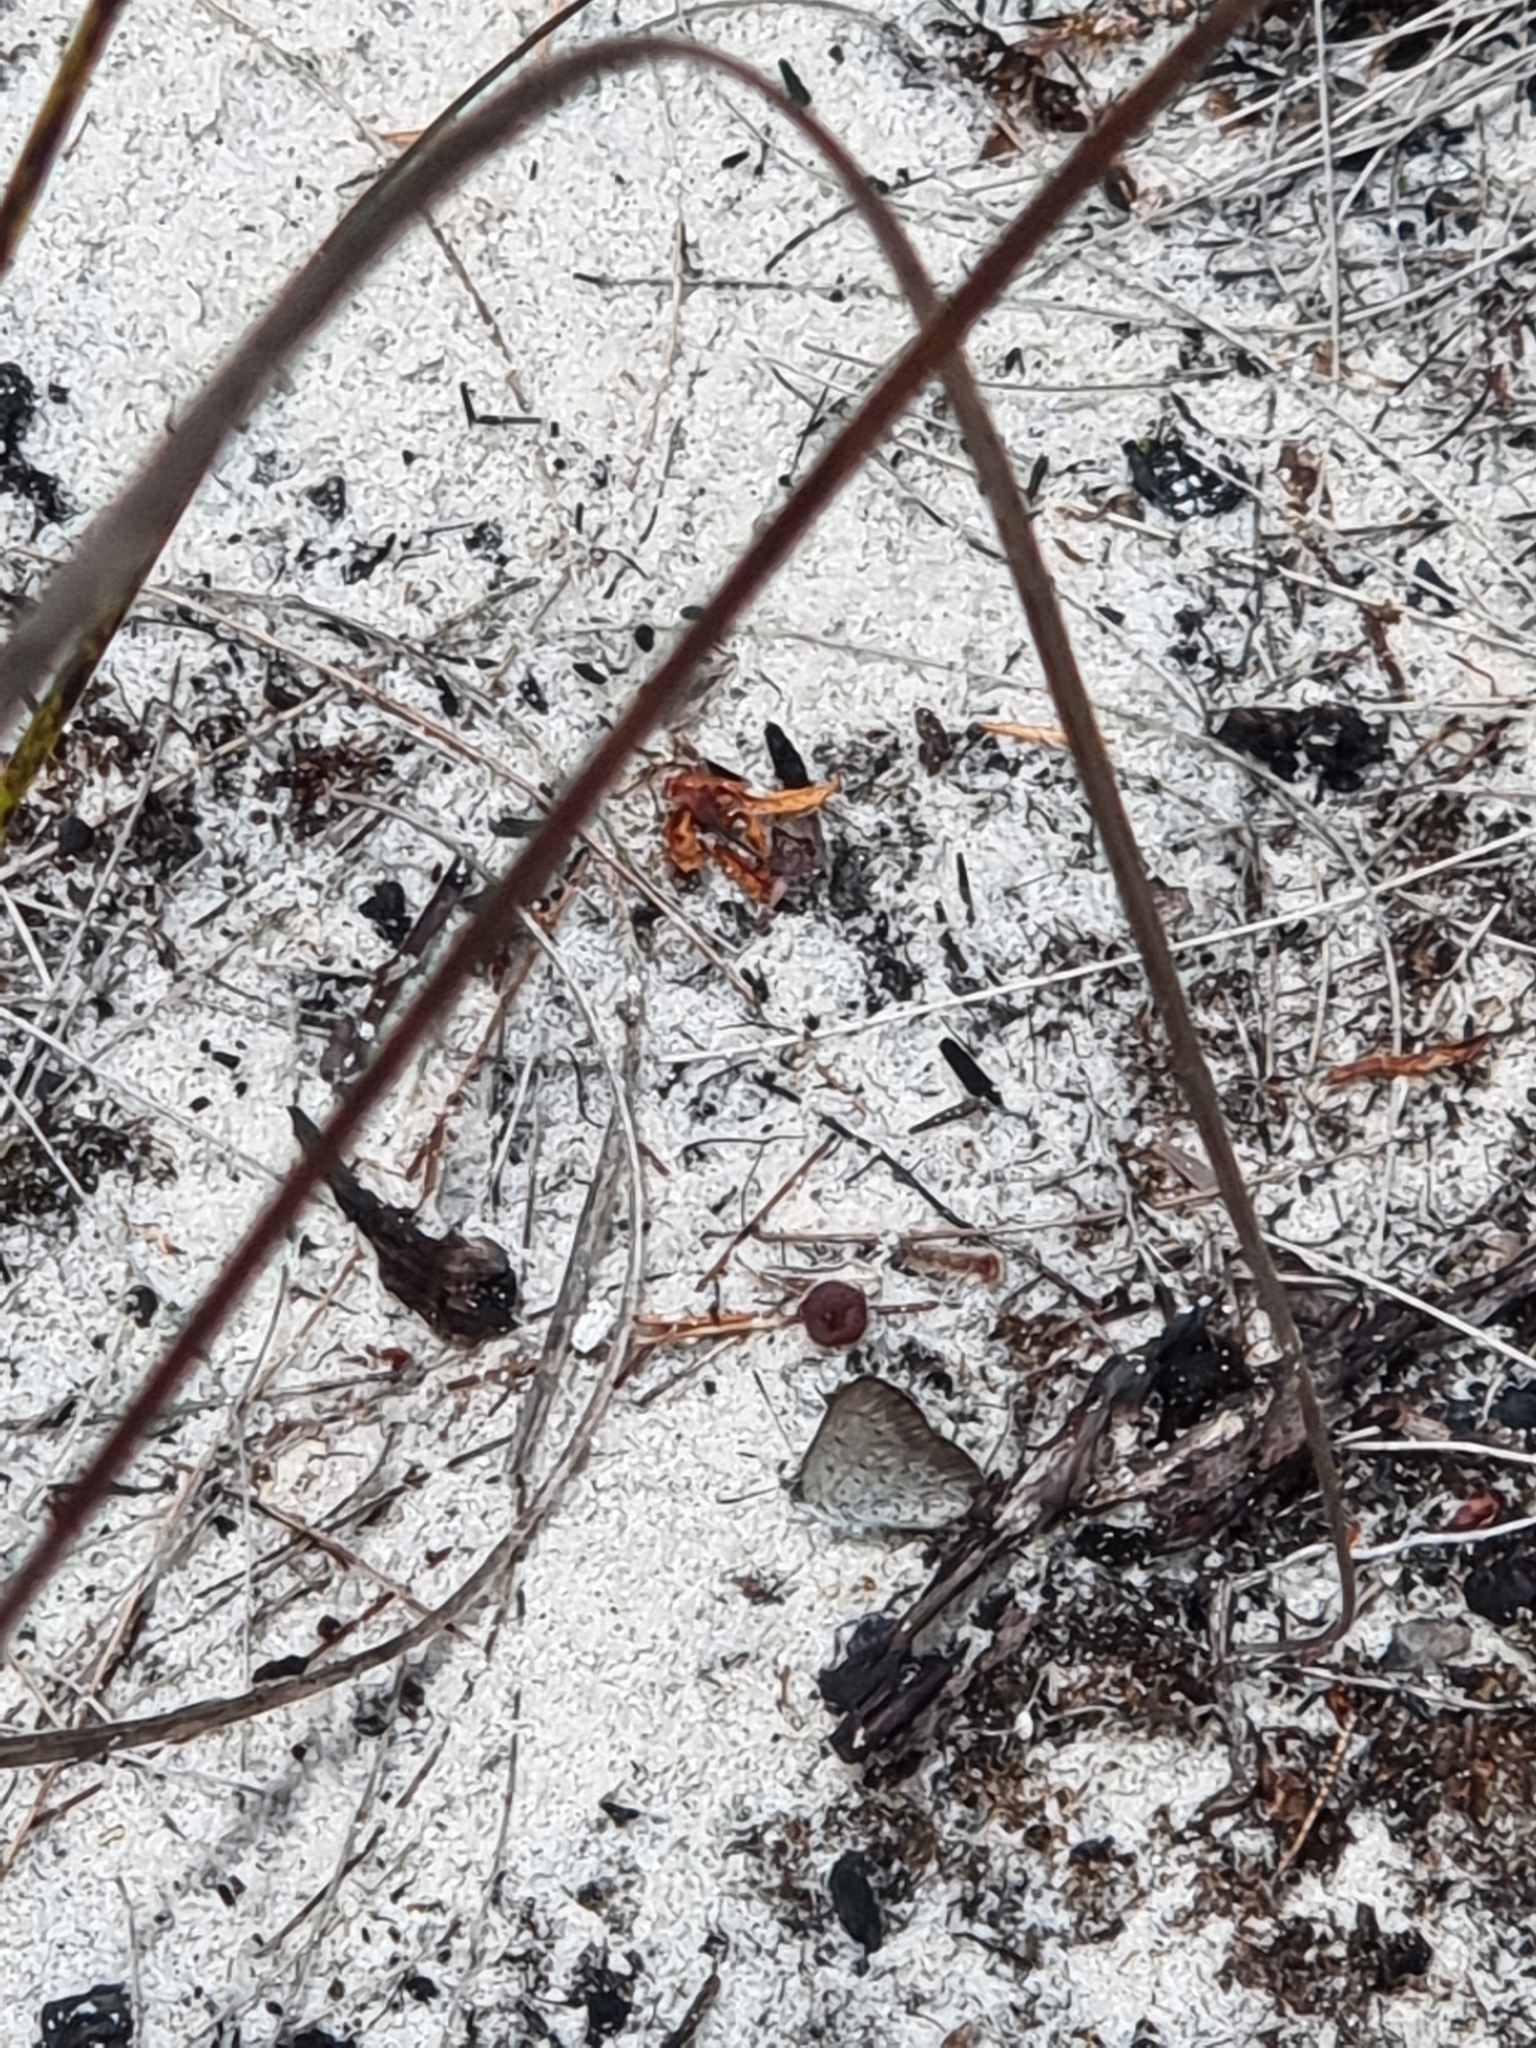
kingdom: Animalia
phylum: Arthropoda
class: Insecta
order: Lepidoptera
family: Lycaenidae
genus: Candalides
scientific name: Candalides
